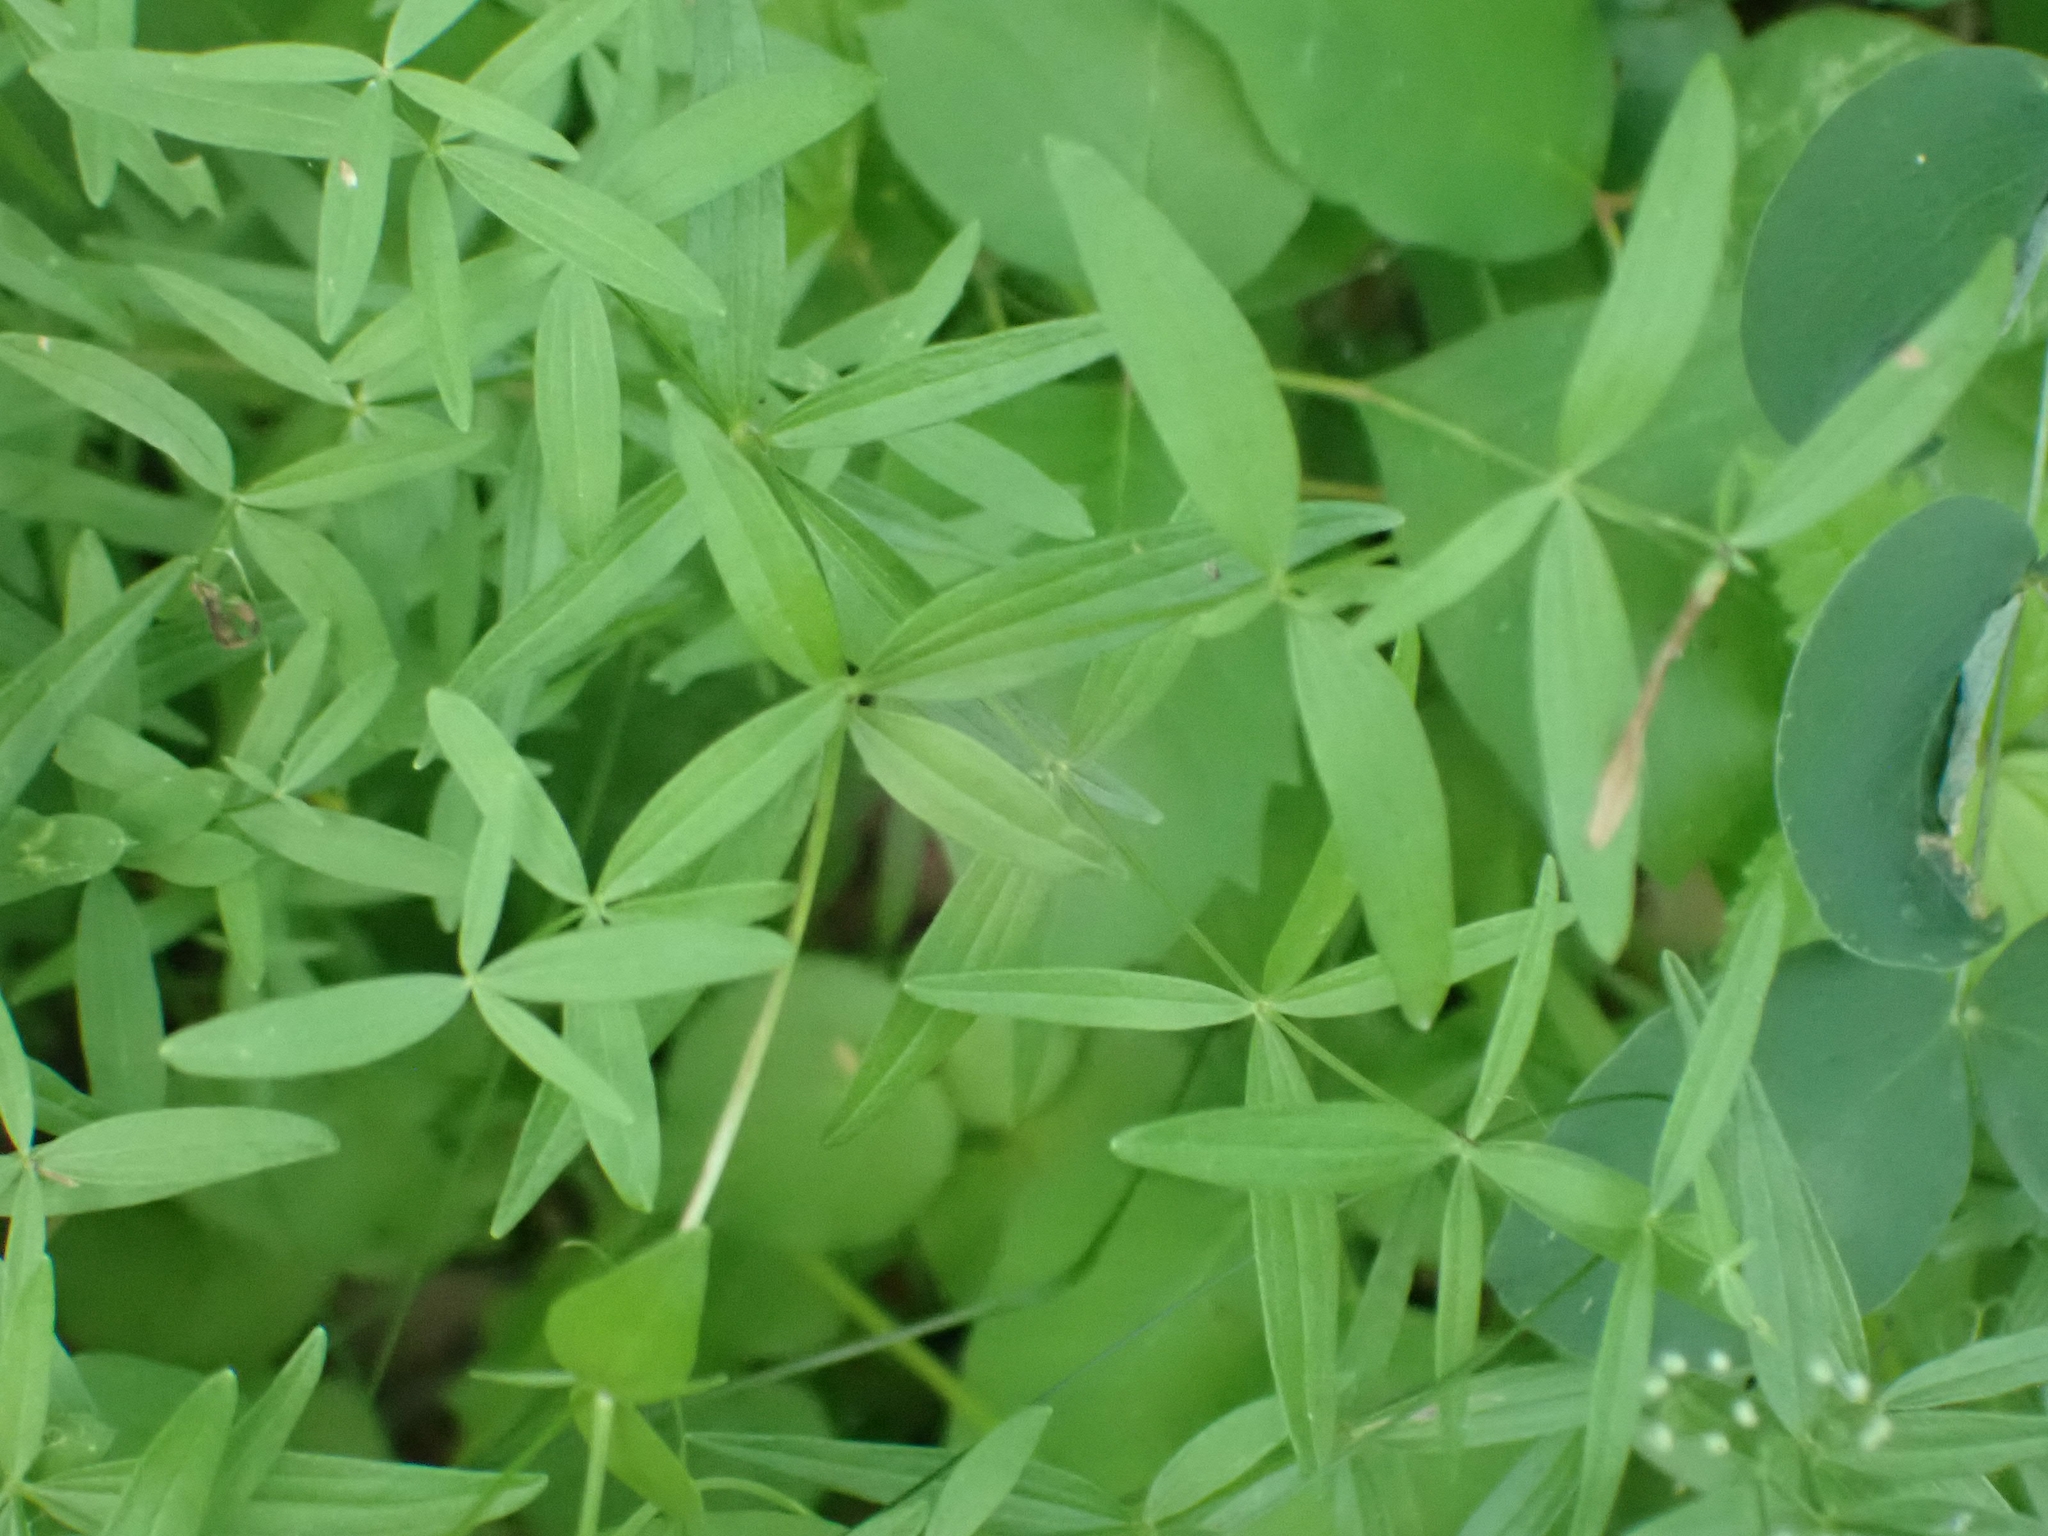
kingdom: Plantae
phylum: Tracheophyta
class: Magnoliopsida
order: Gentianales
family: Rubiaceae
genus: Galium
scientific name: Galium boreale
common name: Northern bedstraw
